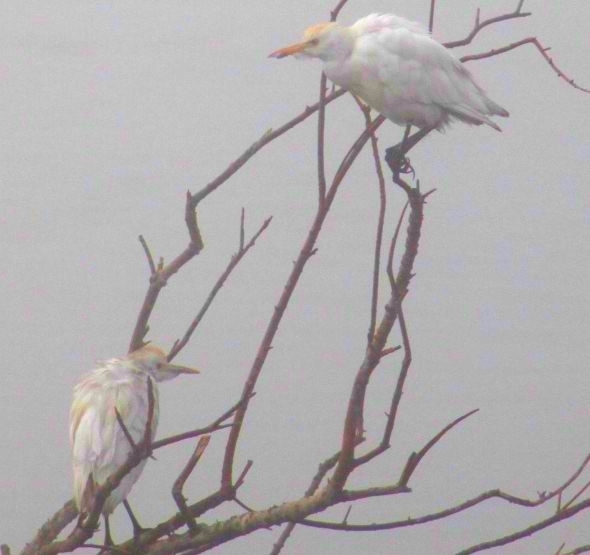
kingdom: Animalia
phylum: Chordata
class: Aves
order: Pelecaniformes
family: Ardeidae
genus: Bubulcus
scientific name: Bubulcus ibis
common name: Cattle egret
